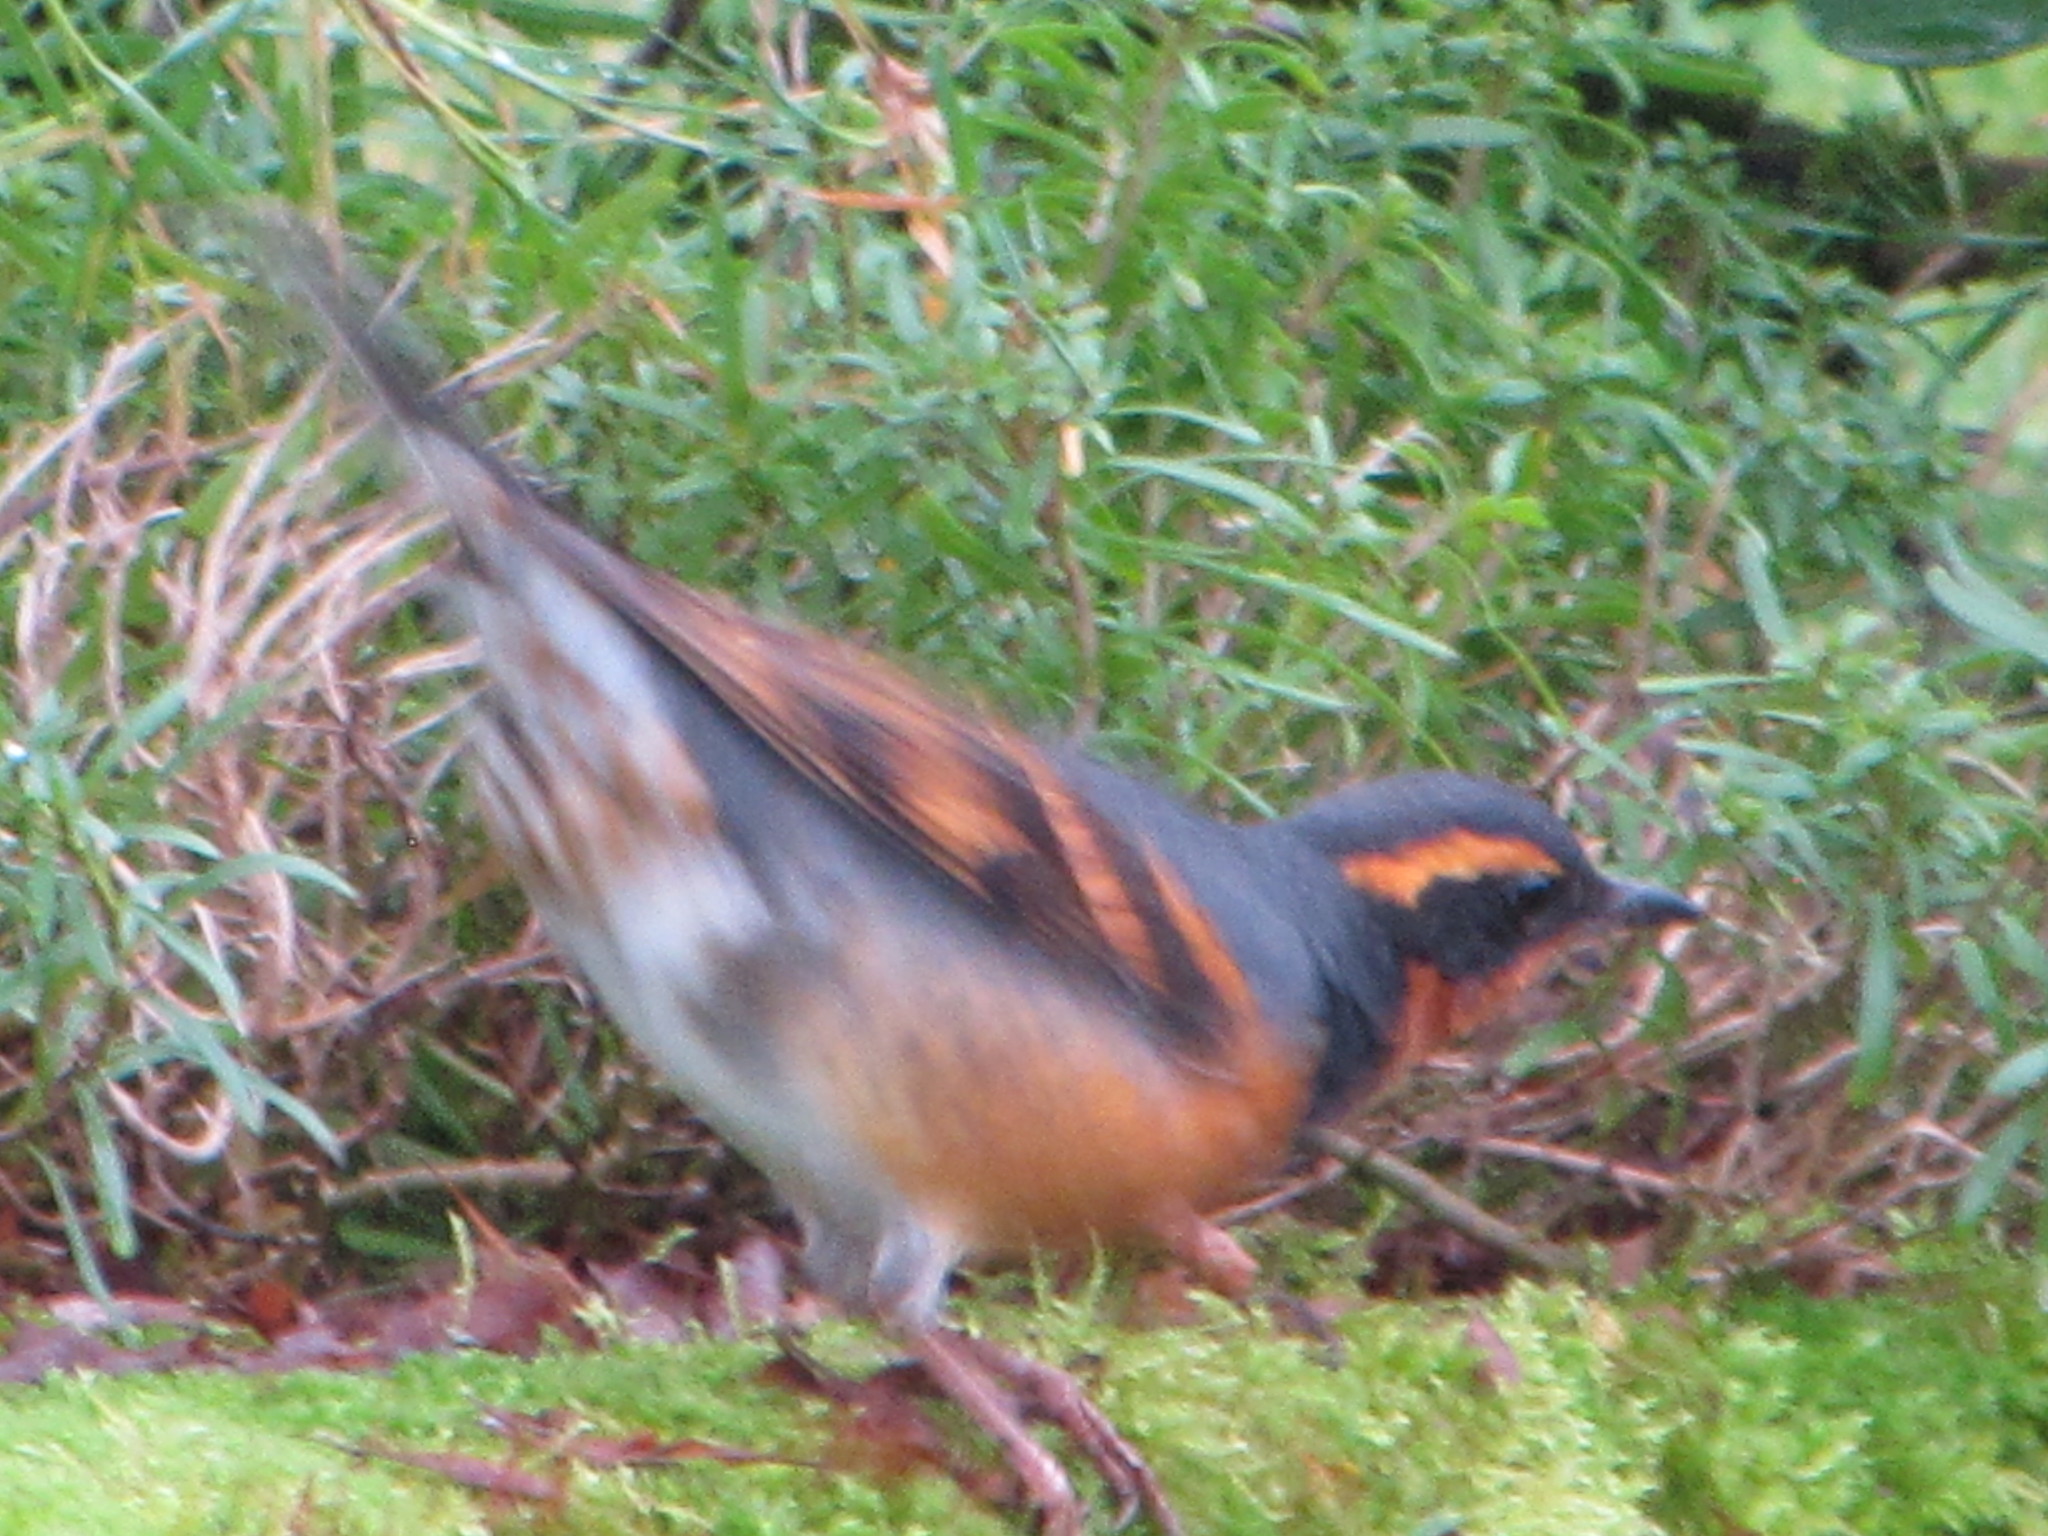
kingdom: Animalia
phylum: Chordata
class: Aves
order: Passeriformes
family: Turdidae
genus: Ixoreus
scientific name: Ixoreus naevius
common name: Varied thrush
